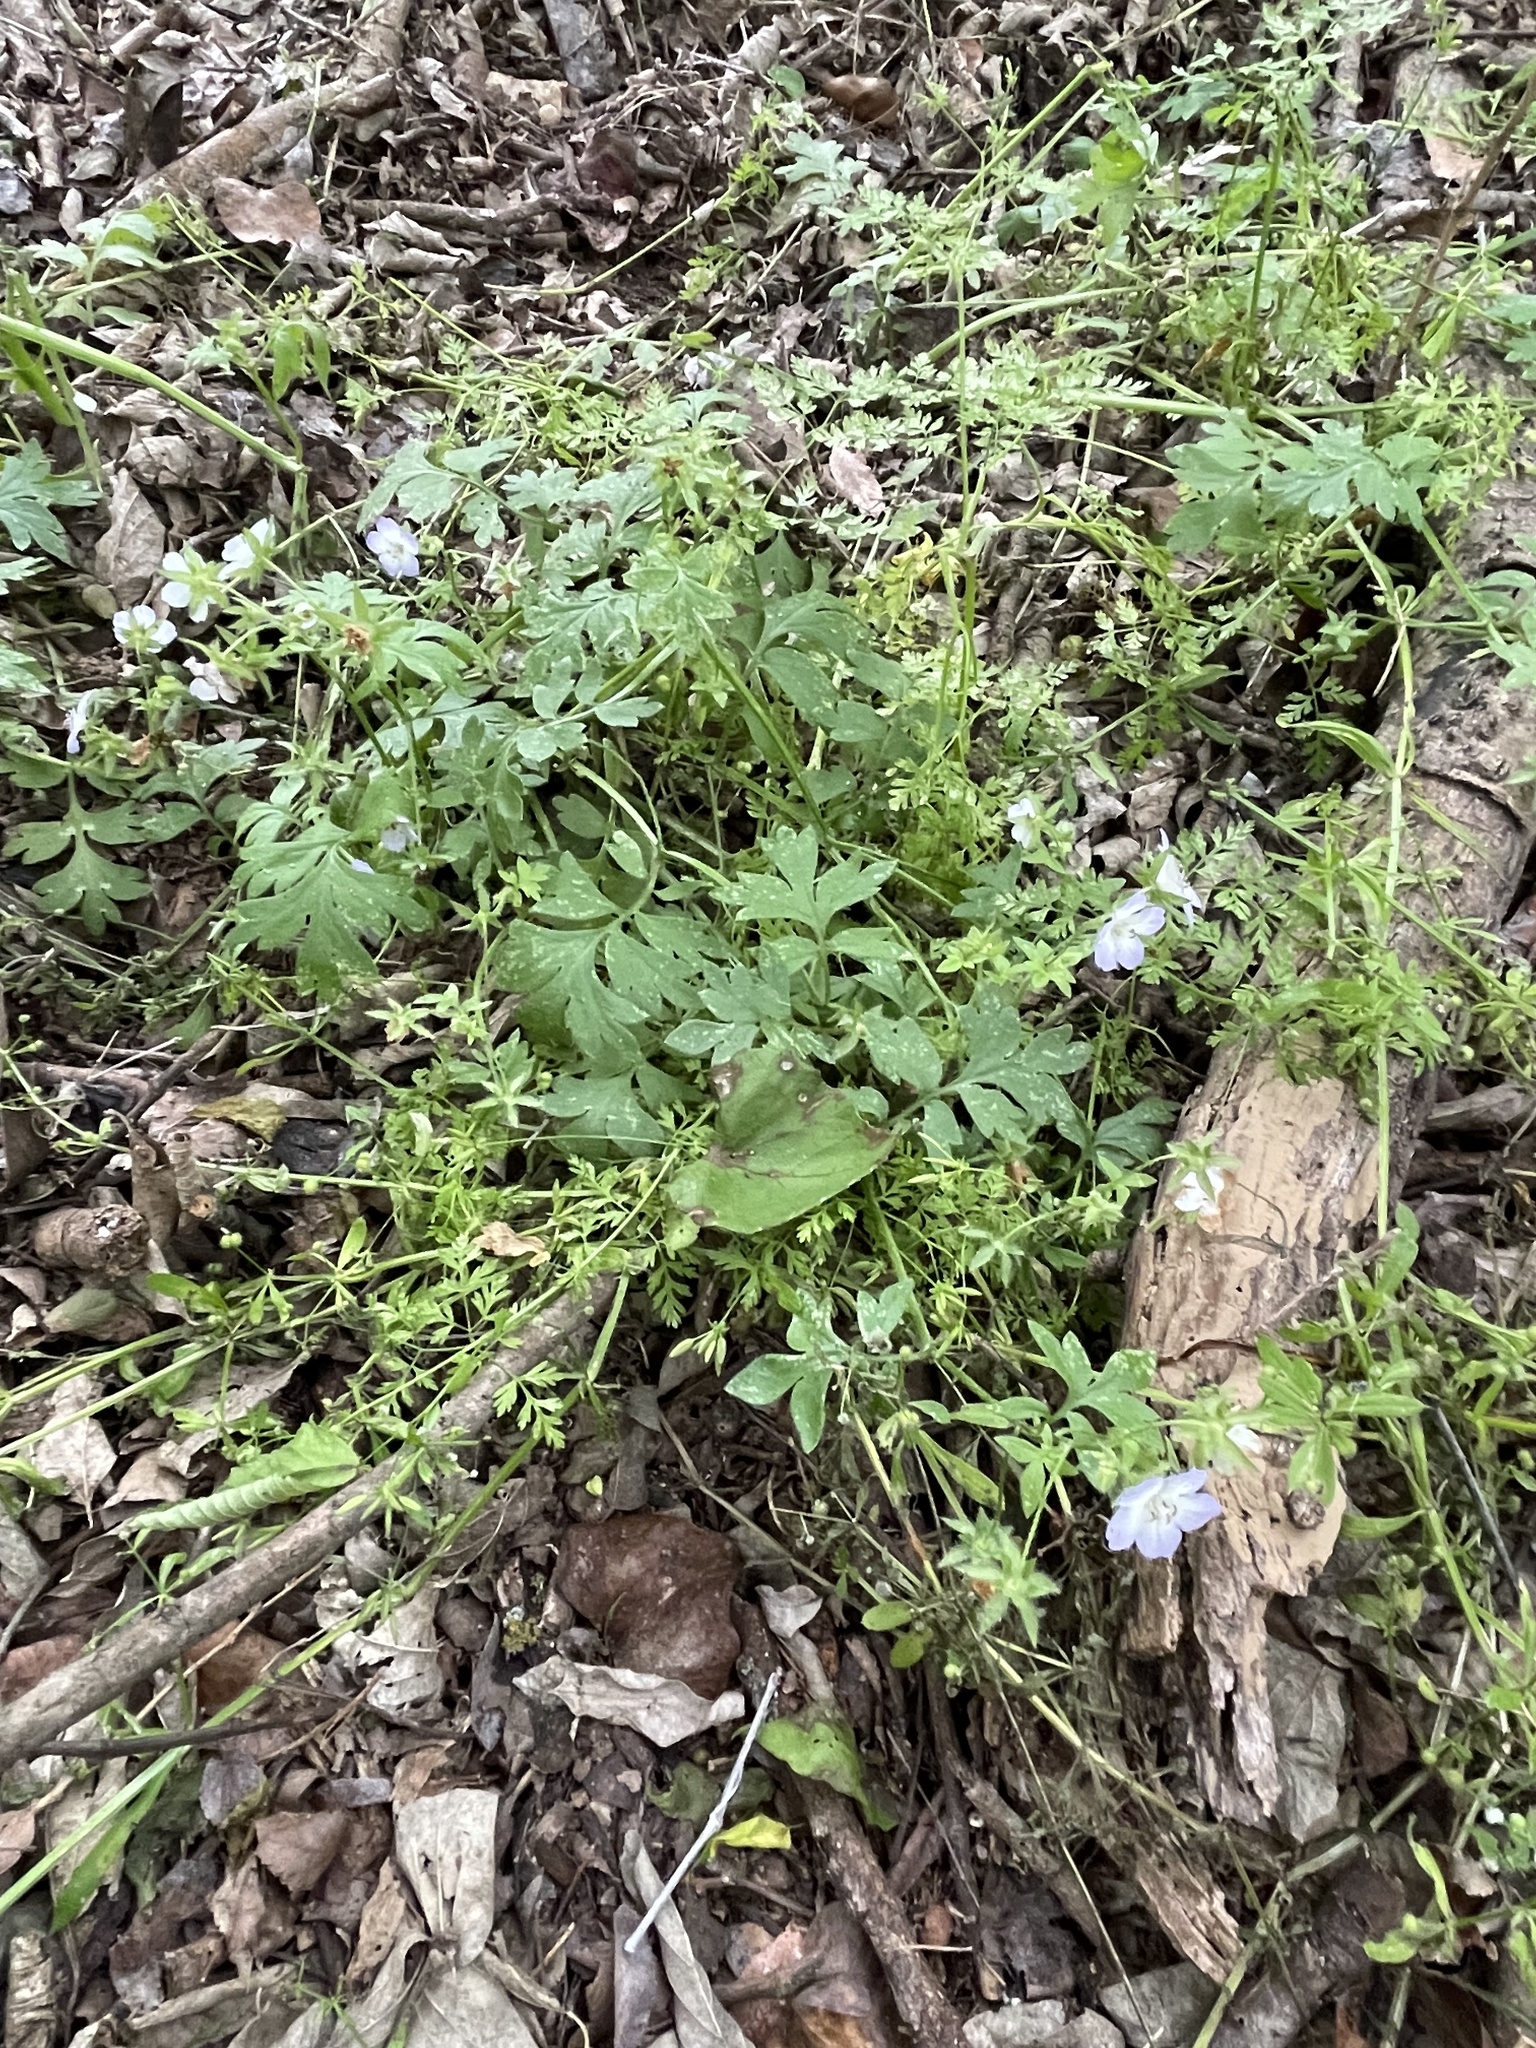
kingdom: Plantae
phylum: Tracheophyta
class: Magnoliopsida
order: Boraginales
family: Hydrophyllaceae
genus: Nemophila
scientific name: Nemophila phacelioides
